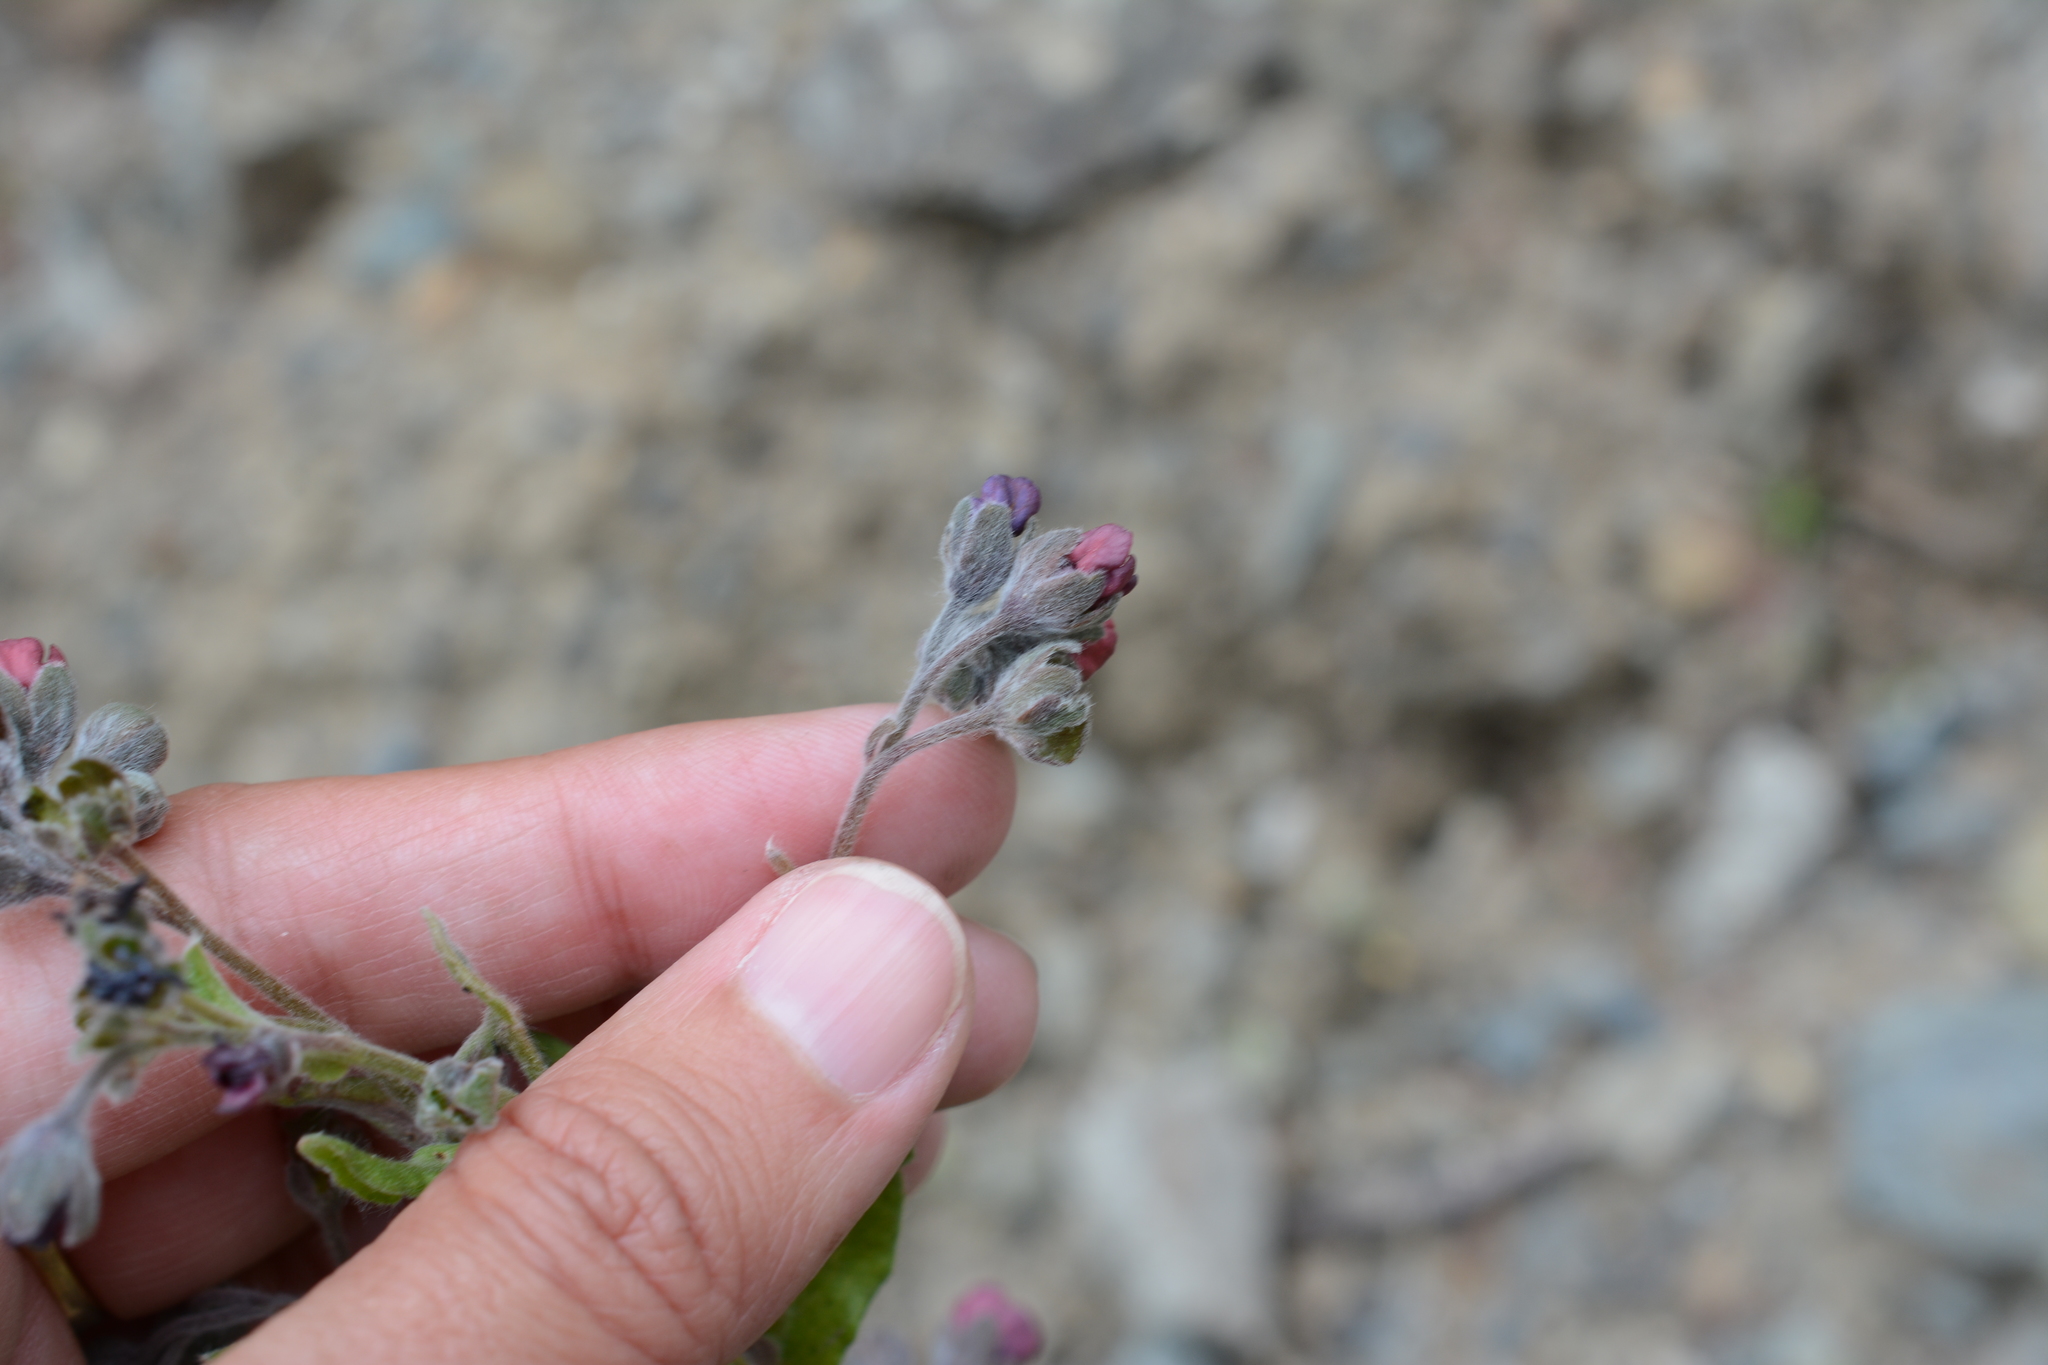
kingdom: Plantae
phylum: Tracheophyta
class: Magnoliopsida
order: Boraginales
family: Boraginaceae
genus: Cynoglossum
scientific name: Cynoglossum officinale
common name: Hound's-tongue
